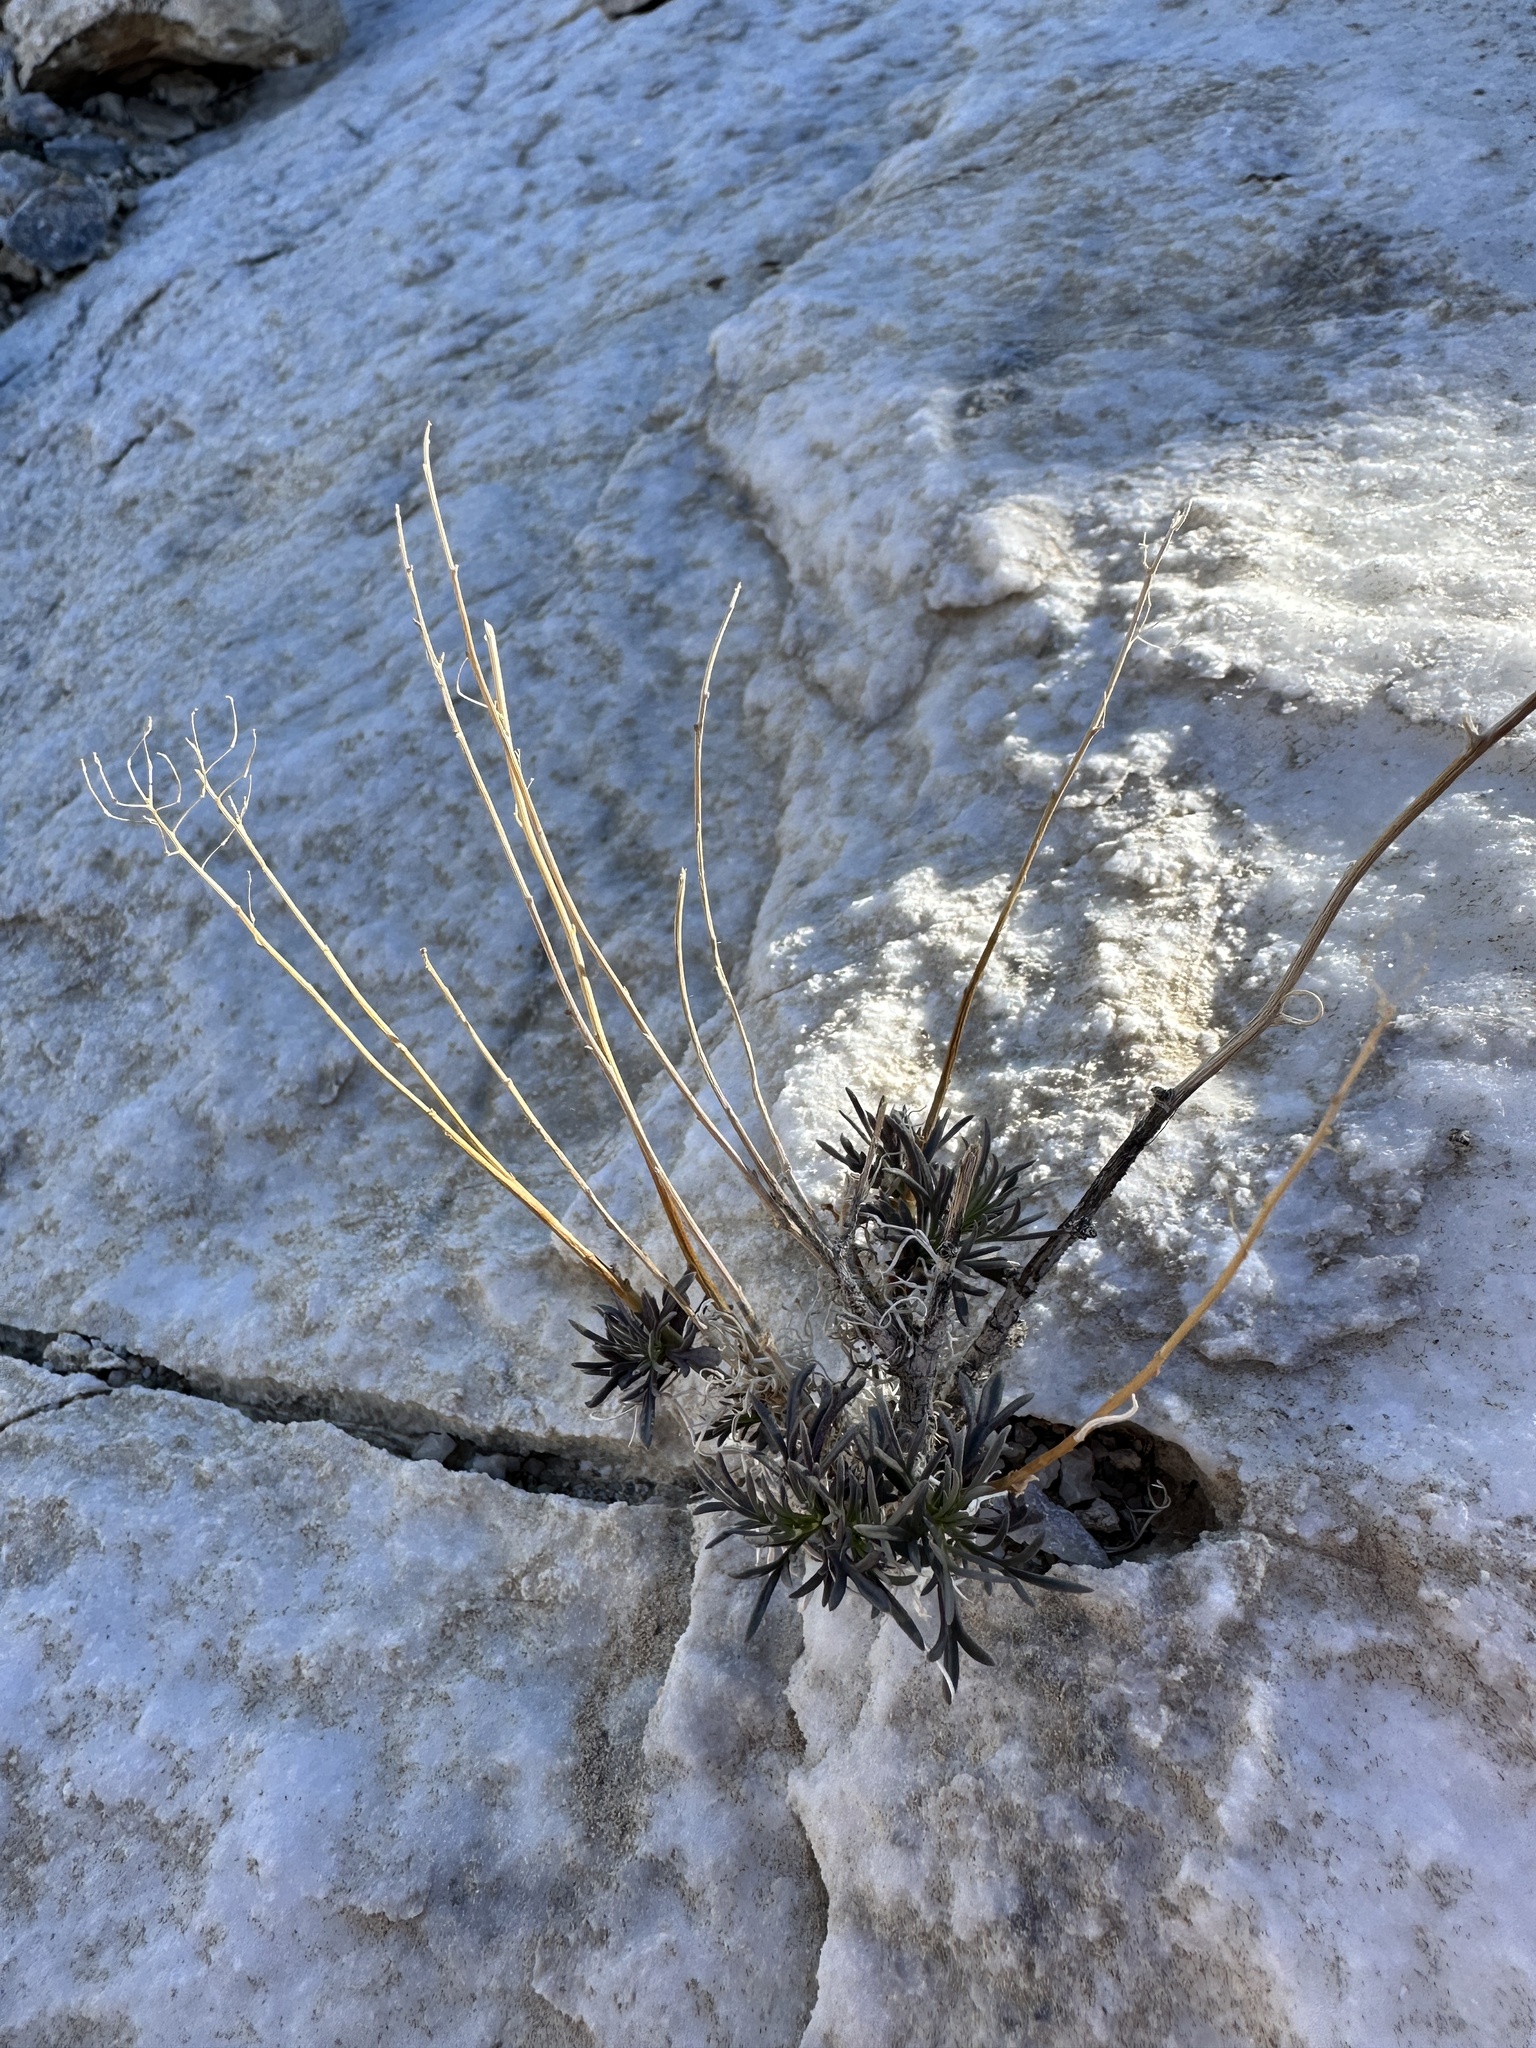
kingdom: Plantae
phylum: Tracheophyta
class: Magnoliopsida
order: Brassicales
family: Brassicaceae
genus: Lepidium
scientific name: Lepidium fremontii
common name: Fremont's pepperwort
